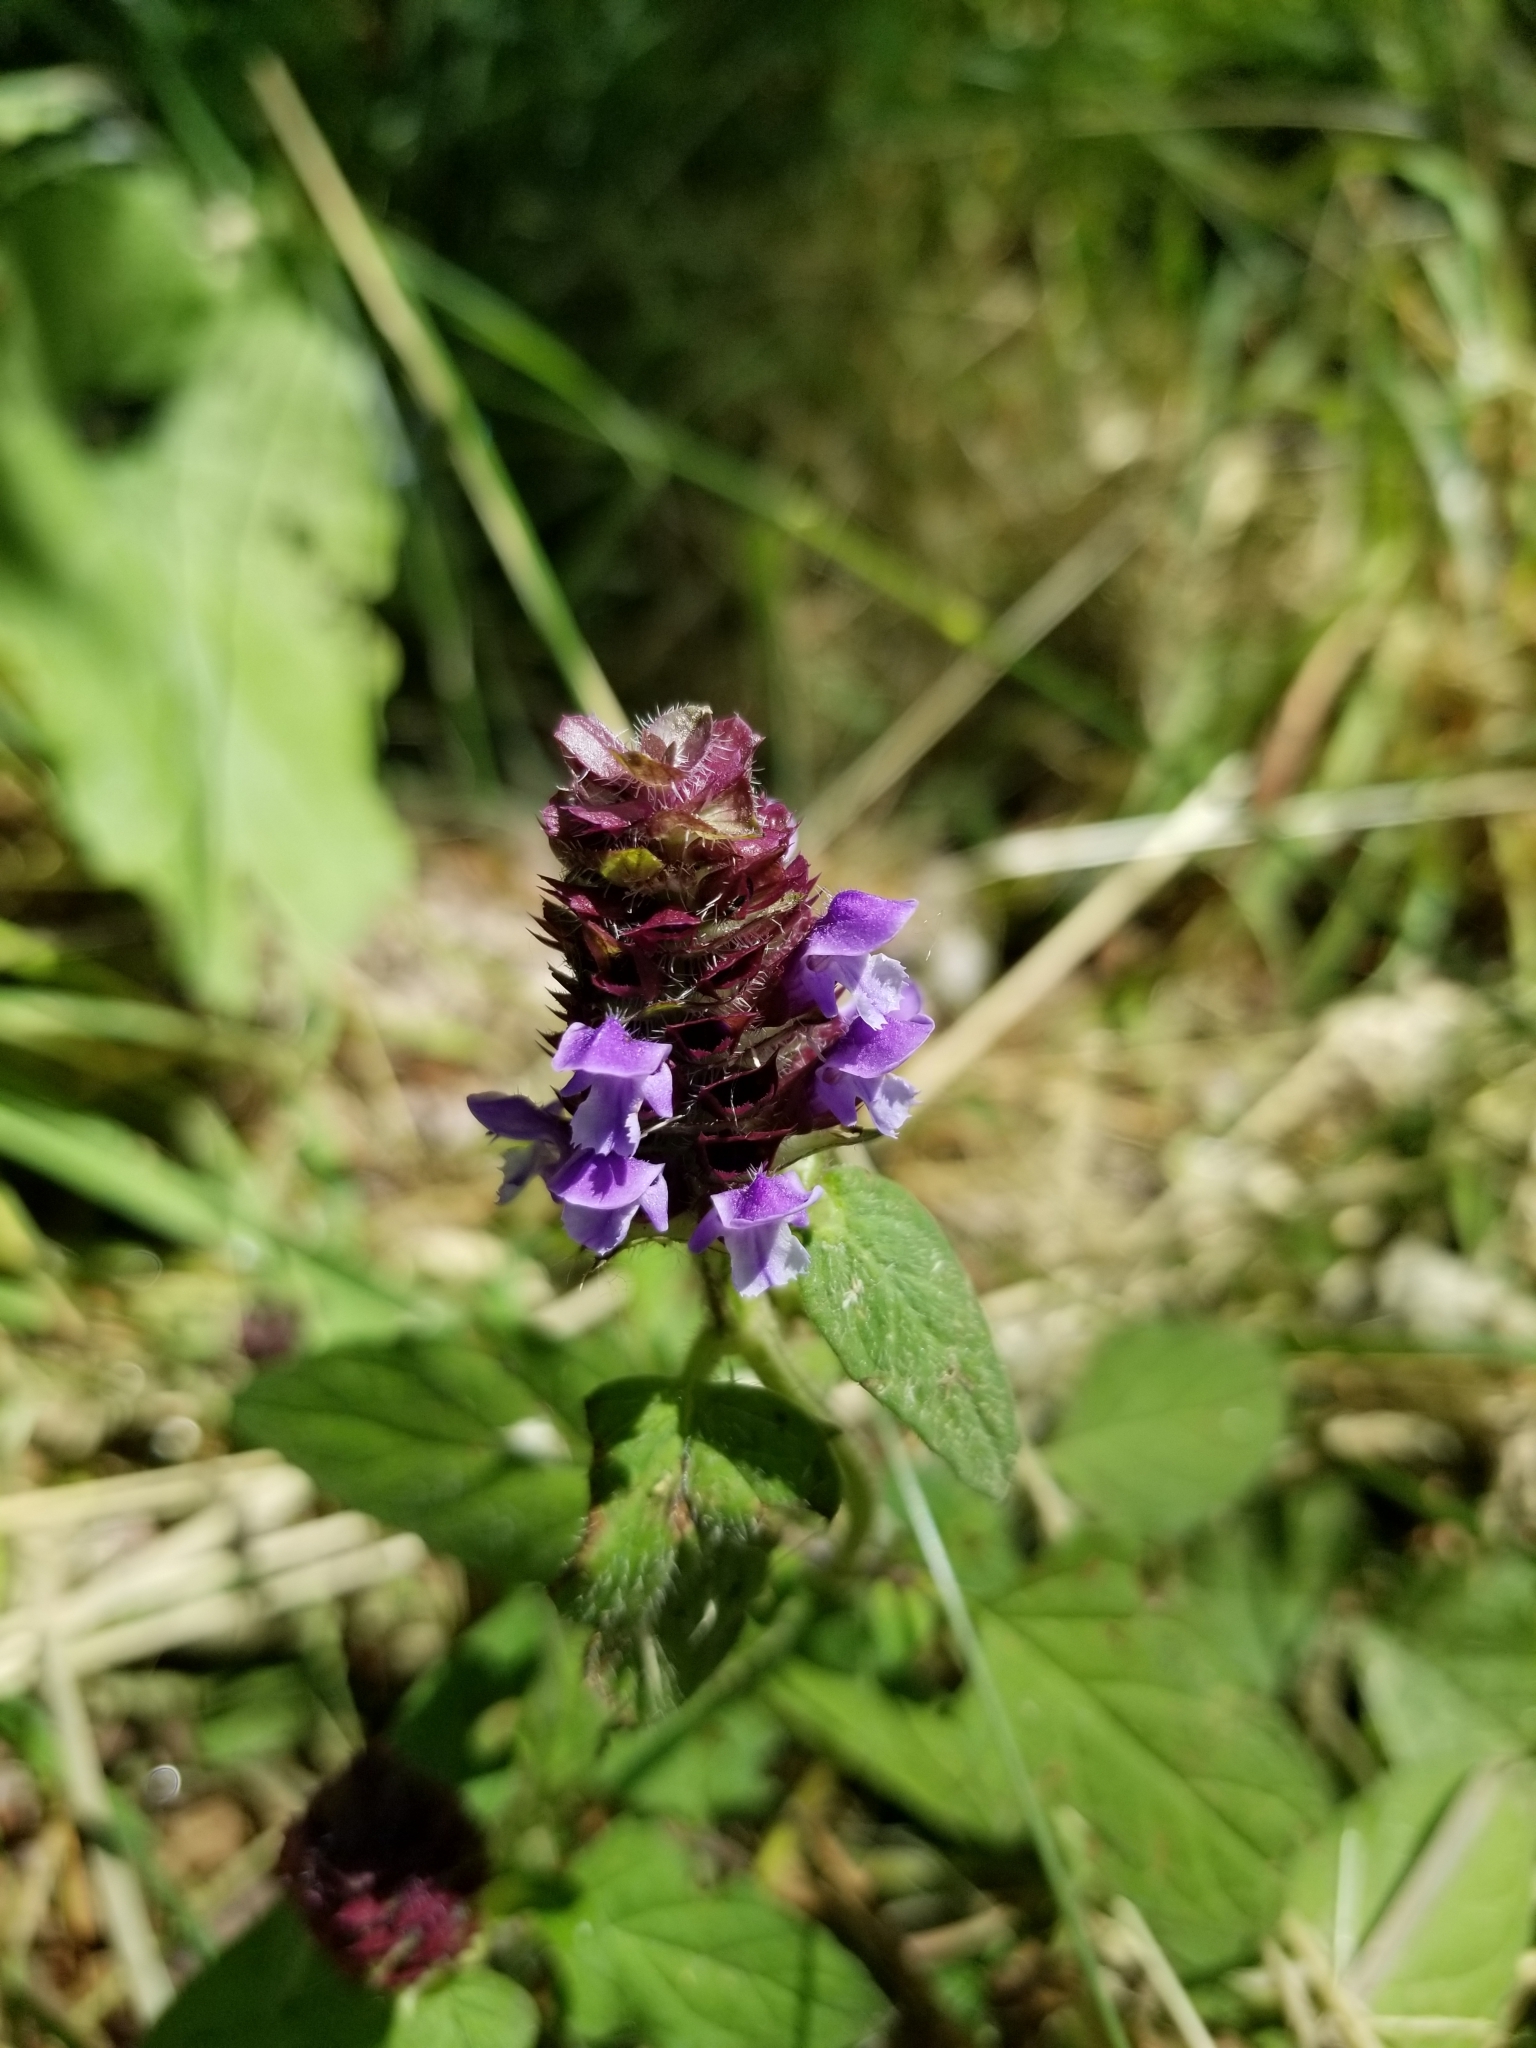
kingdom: Plantae
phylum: Tracheophyta
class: Magnoliopsida
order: Lamiales
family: Lamiaceae
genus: Prunella
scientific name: Prunella vulgaris
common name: Heal-all
